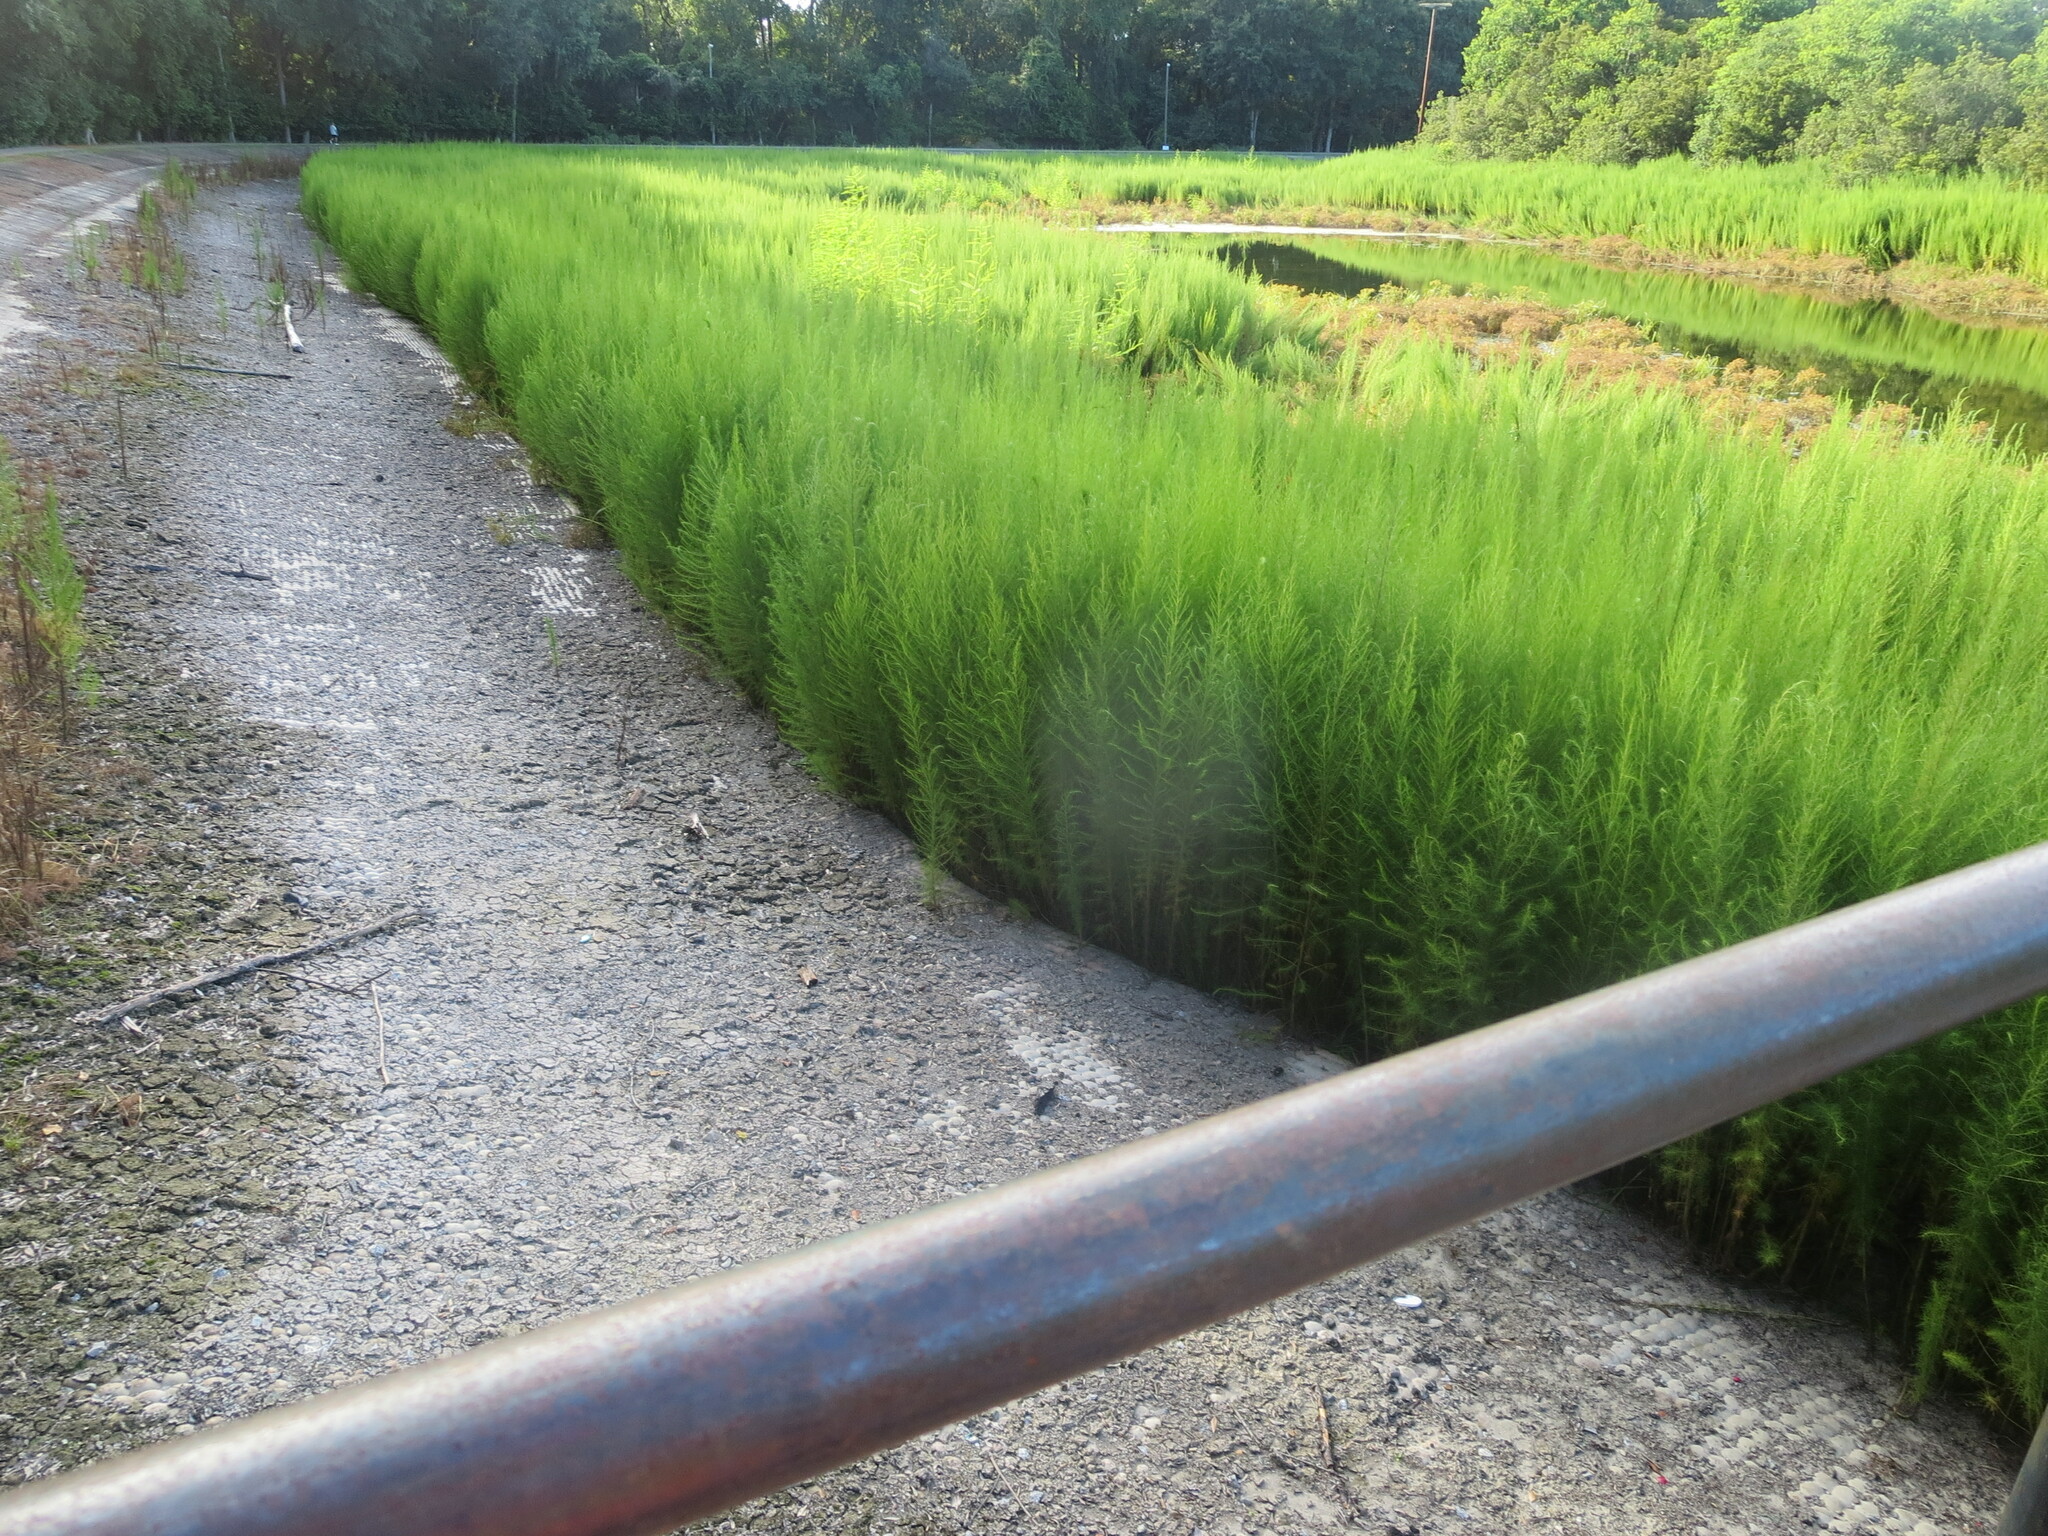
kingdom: Plantae
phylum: Tracheophyta
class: Magnoliopsida
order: Asterales
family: Asteraceae
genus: Eupatorium
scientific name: Eupatorium capillifolium
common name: Dog-fennel
